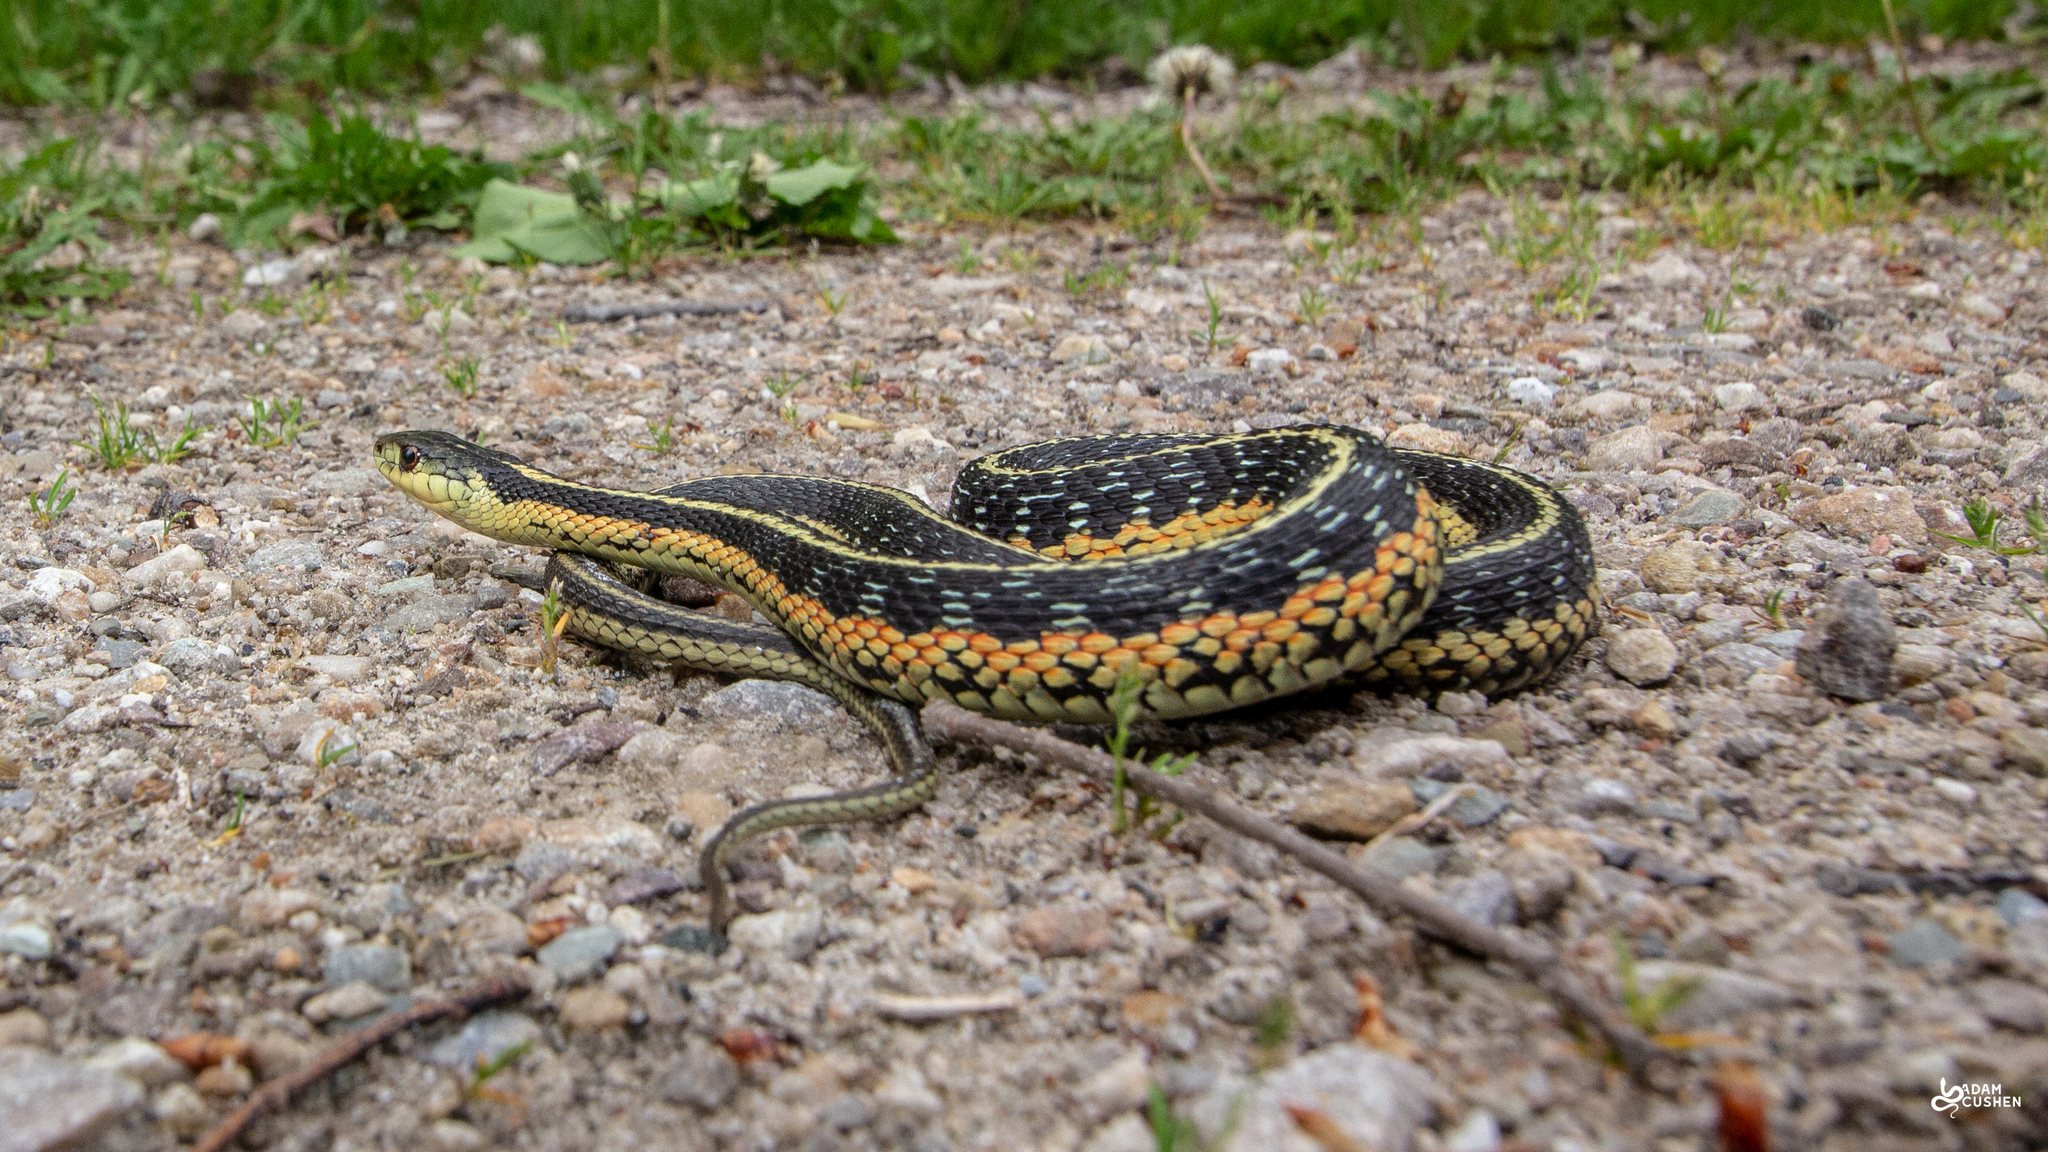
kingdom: Animalia
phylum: Chordata
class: Squamata
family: Colubridae
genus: Thamnophis
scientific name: Thamnophis sirtalis
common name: Common garter snake
